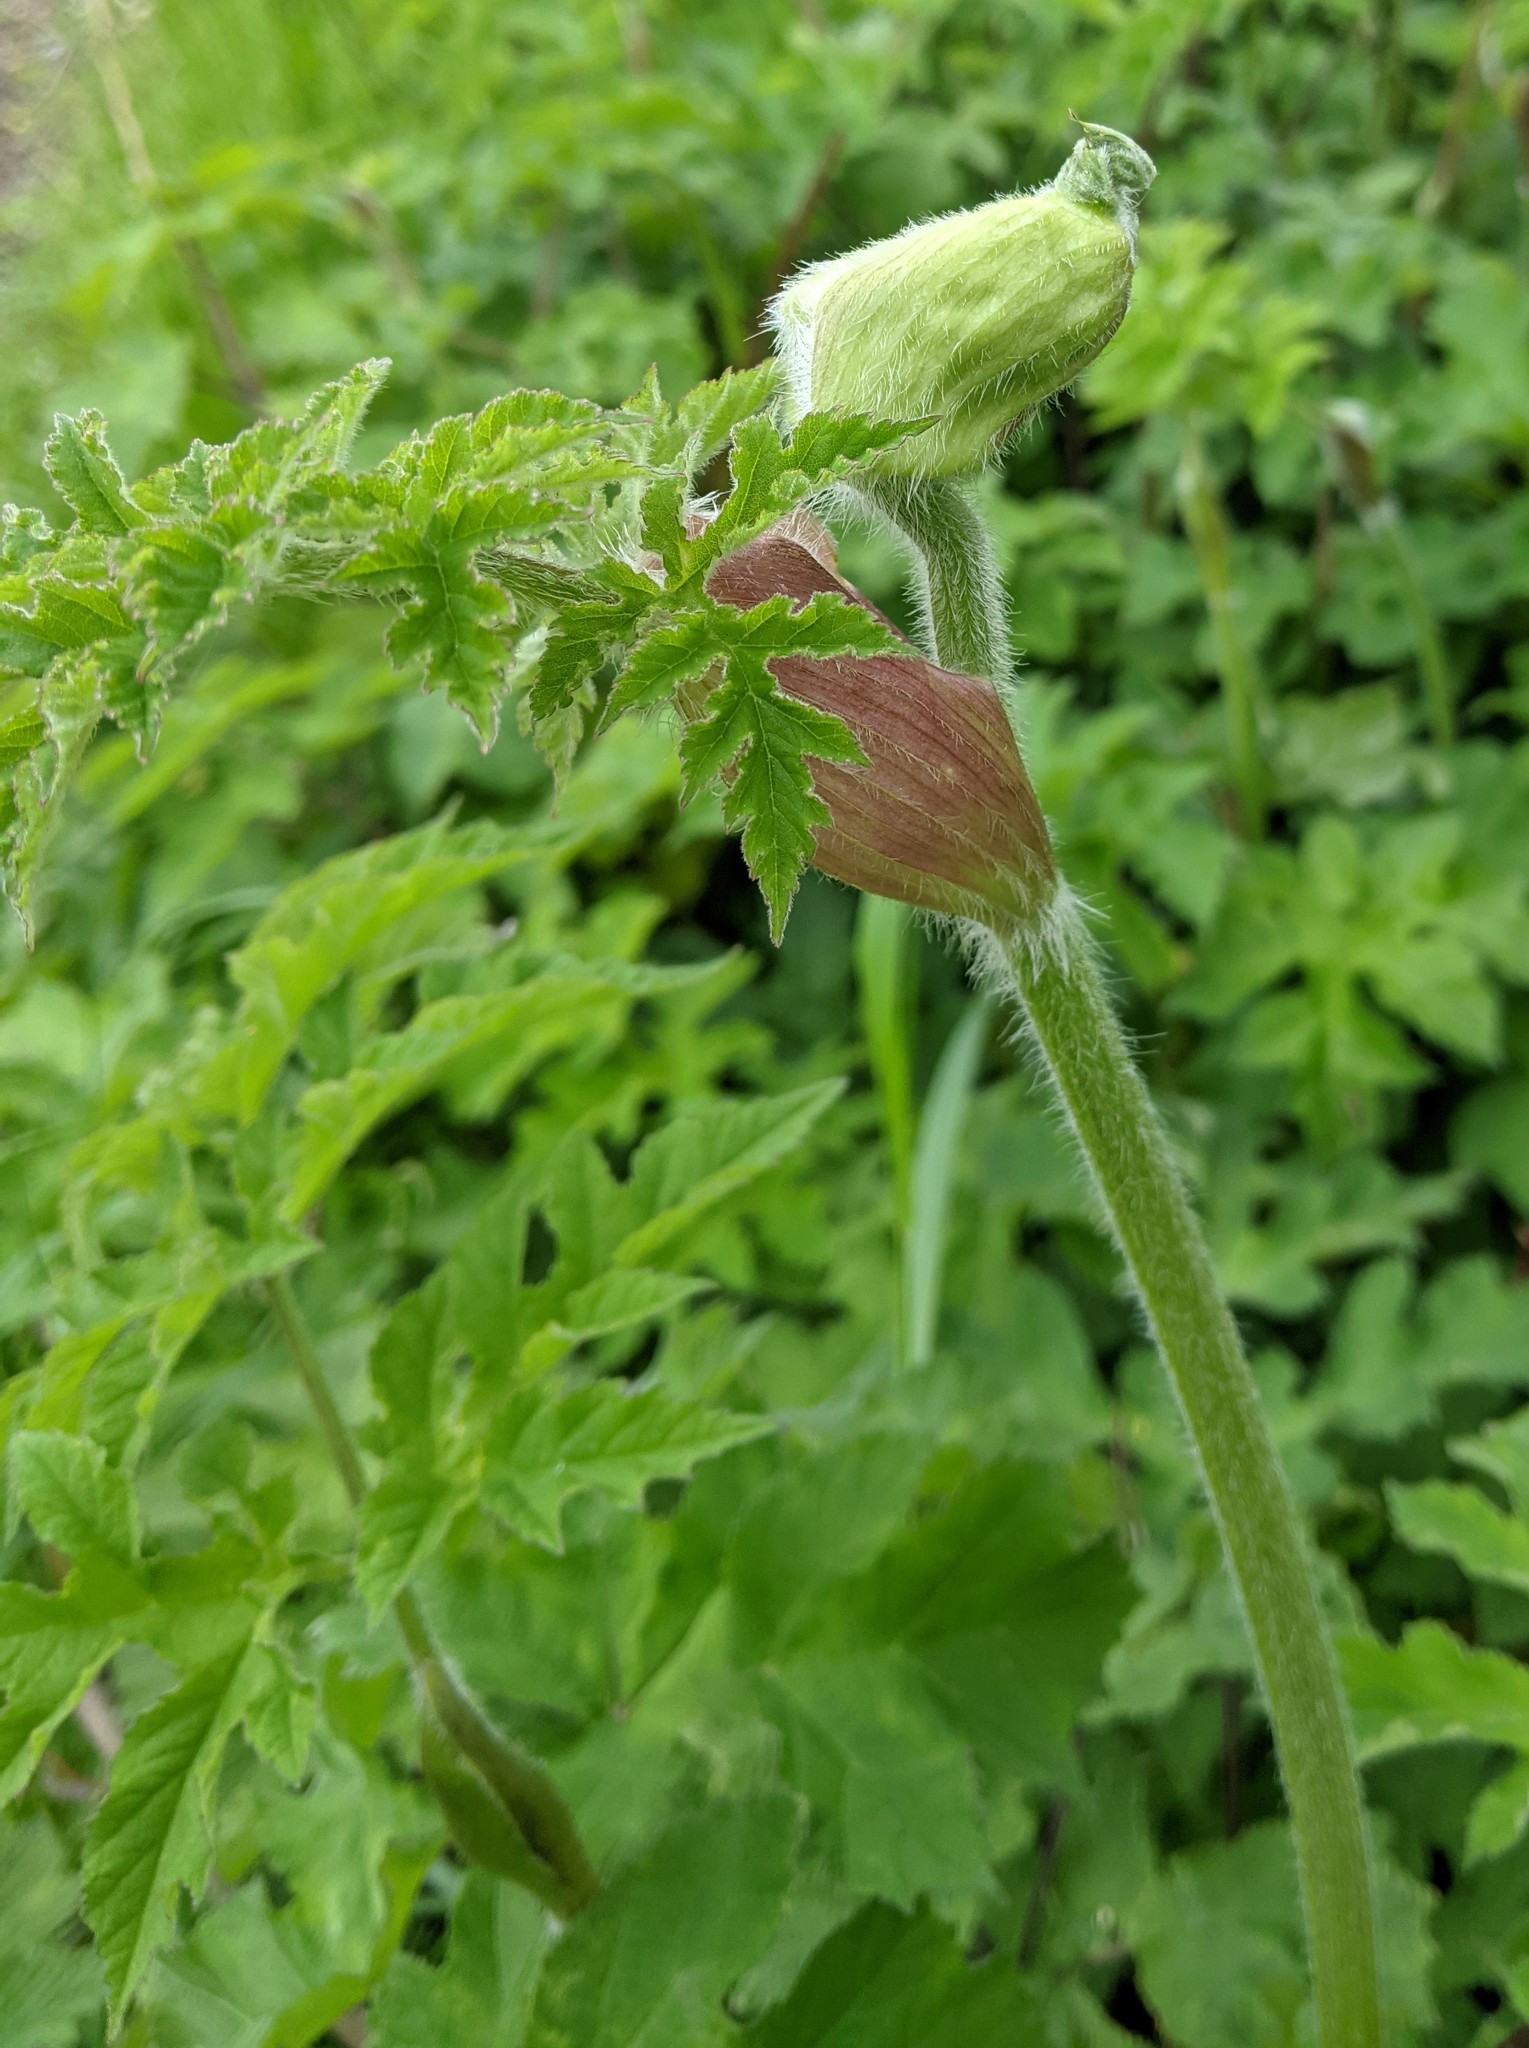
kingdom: Plantae
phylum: Tracheophyta
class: Magnoliopsida
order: Apiales
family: Apiaceae
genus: Heracleum
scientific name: Heracleum sphondylium
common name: Hogweed
